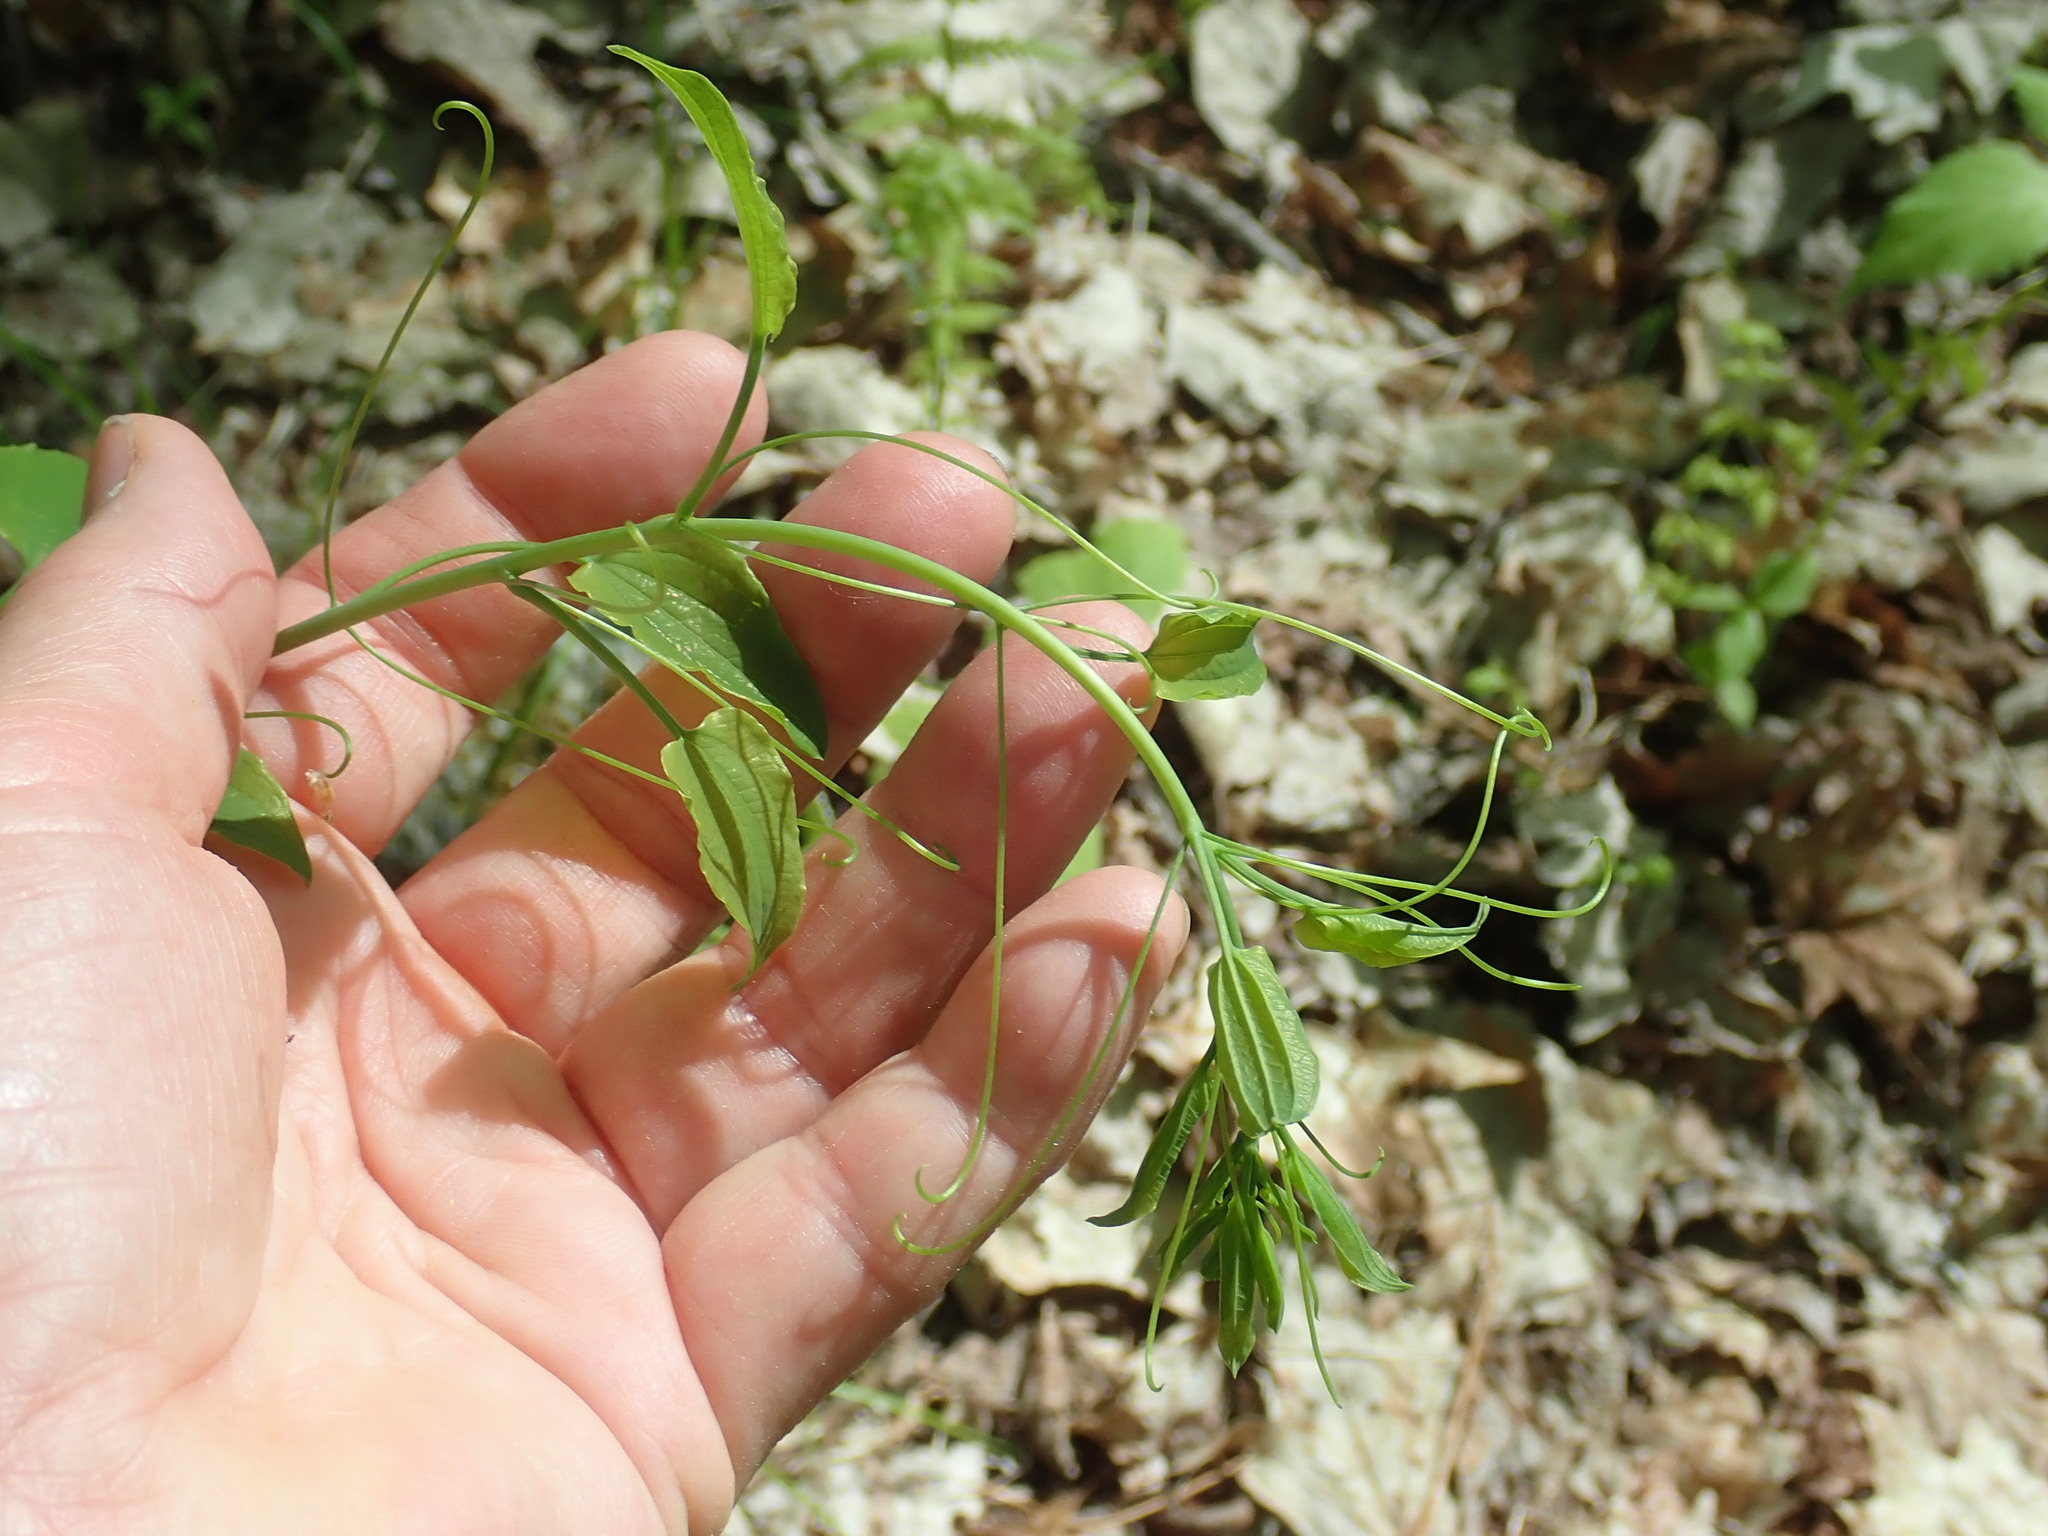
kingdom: Plantae
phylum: Tracheophyta
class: Liliopsida
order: Liliales
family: Smilacaceae
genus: Smilax
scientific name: Smilax herbacea
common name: Jacob's-ladder
